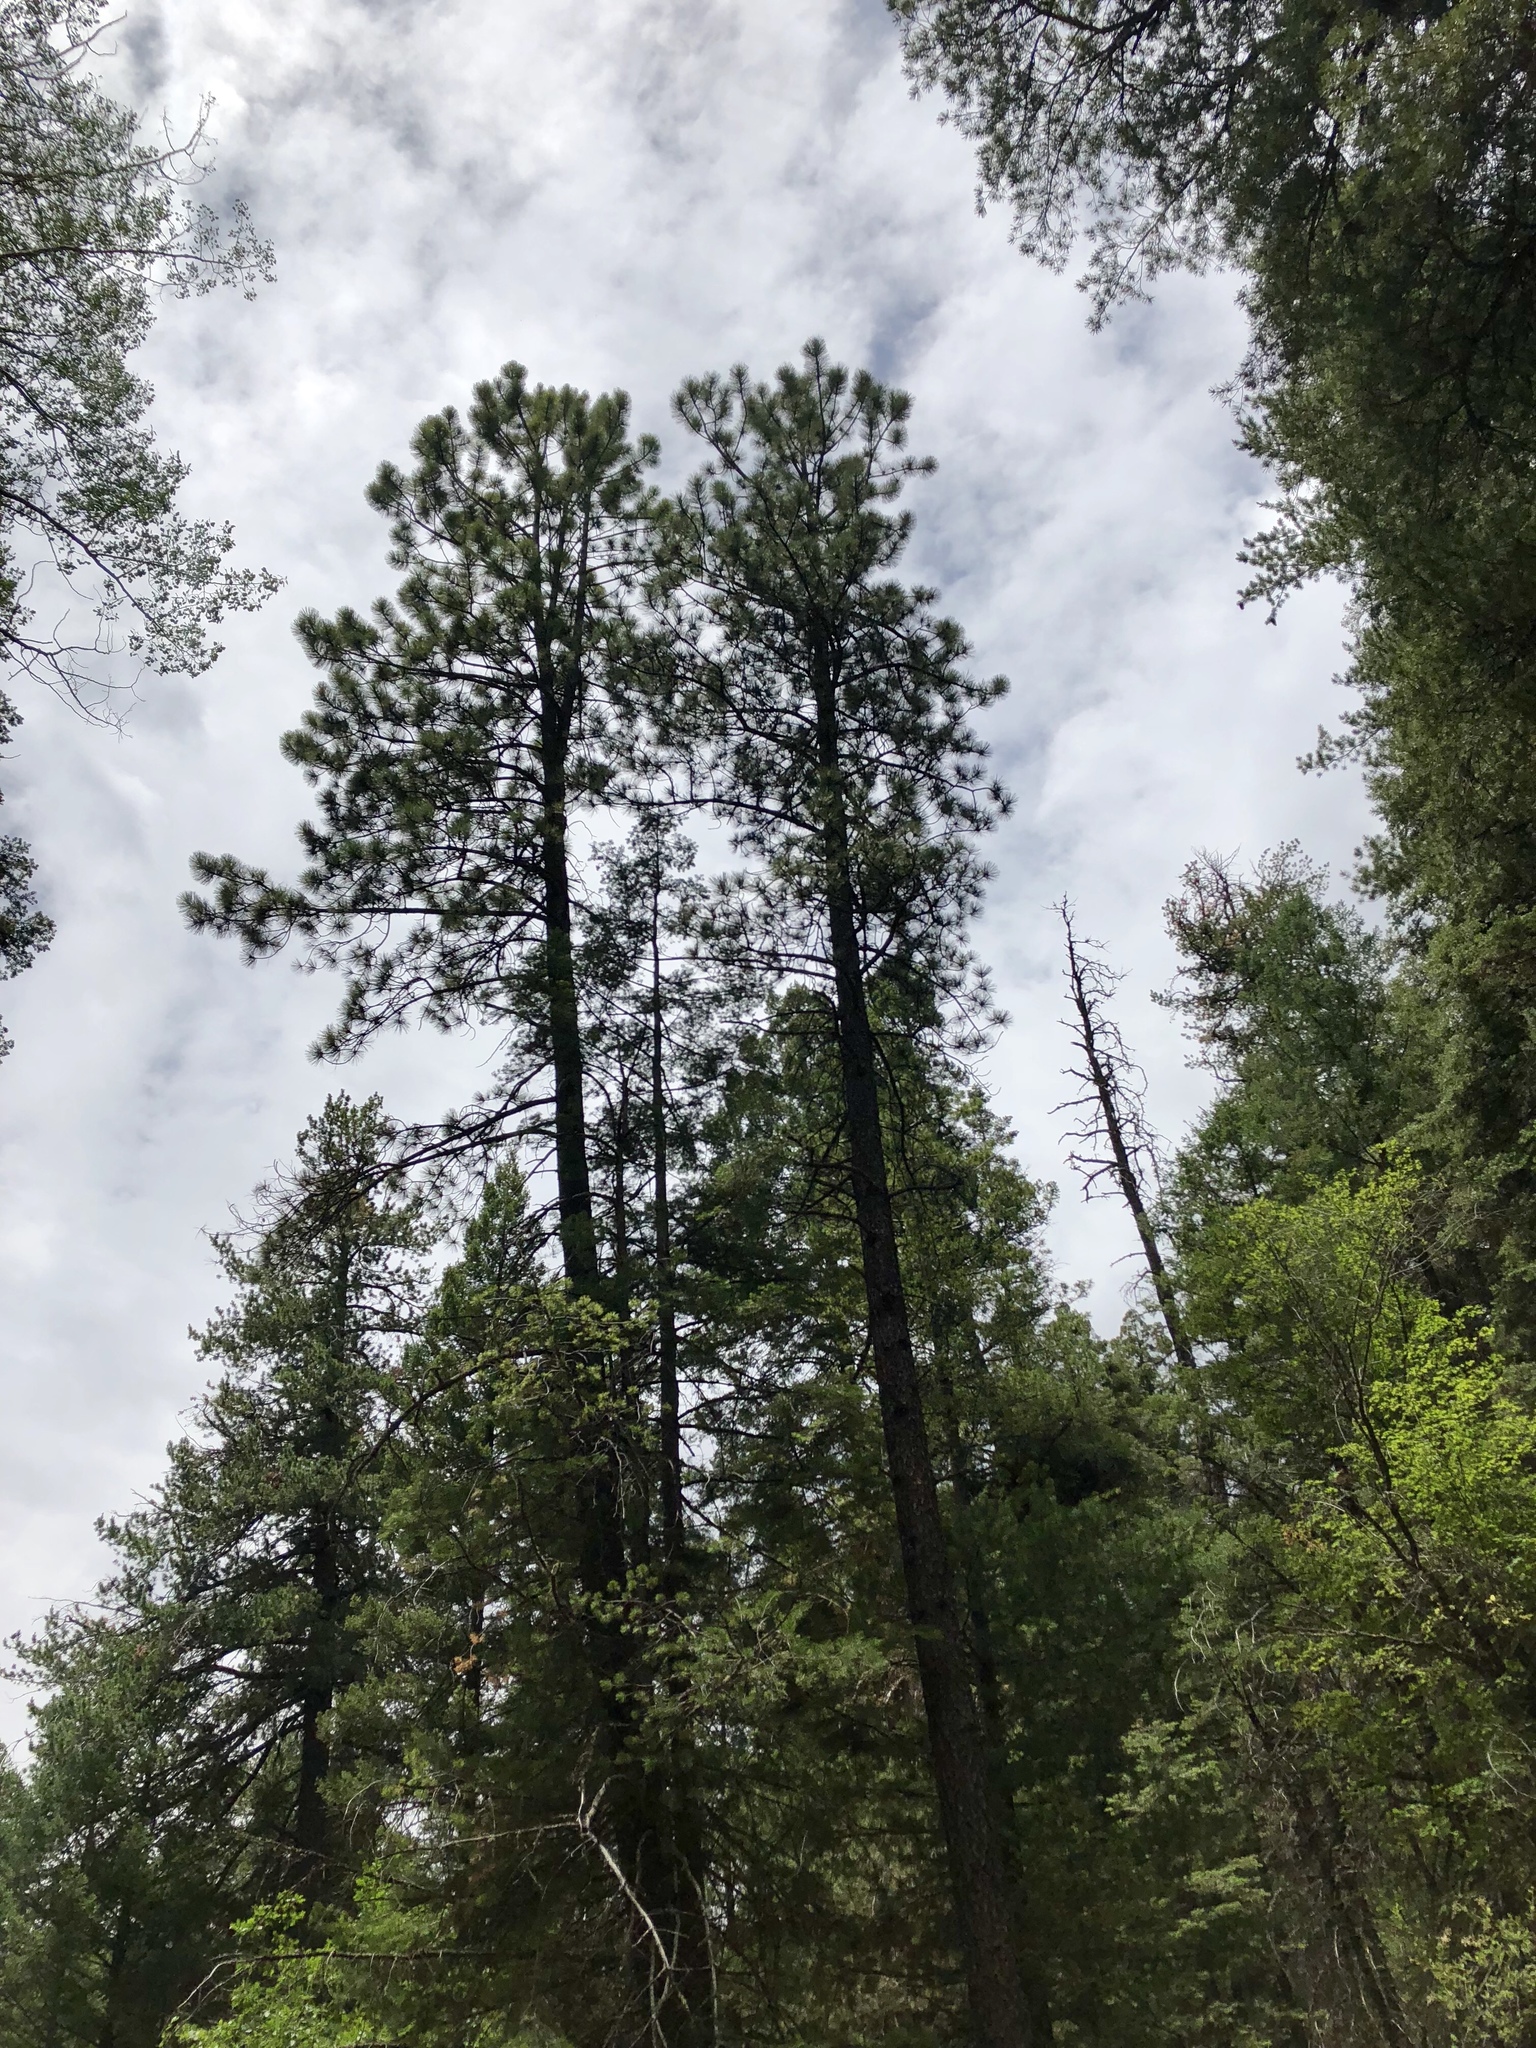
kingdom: Plantae
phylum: Tracheophyta
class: Pinopsida
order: Pinales
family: Pinaceae
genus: Pinus
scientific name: Pinus ponderosa
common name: Western yellow-pine
